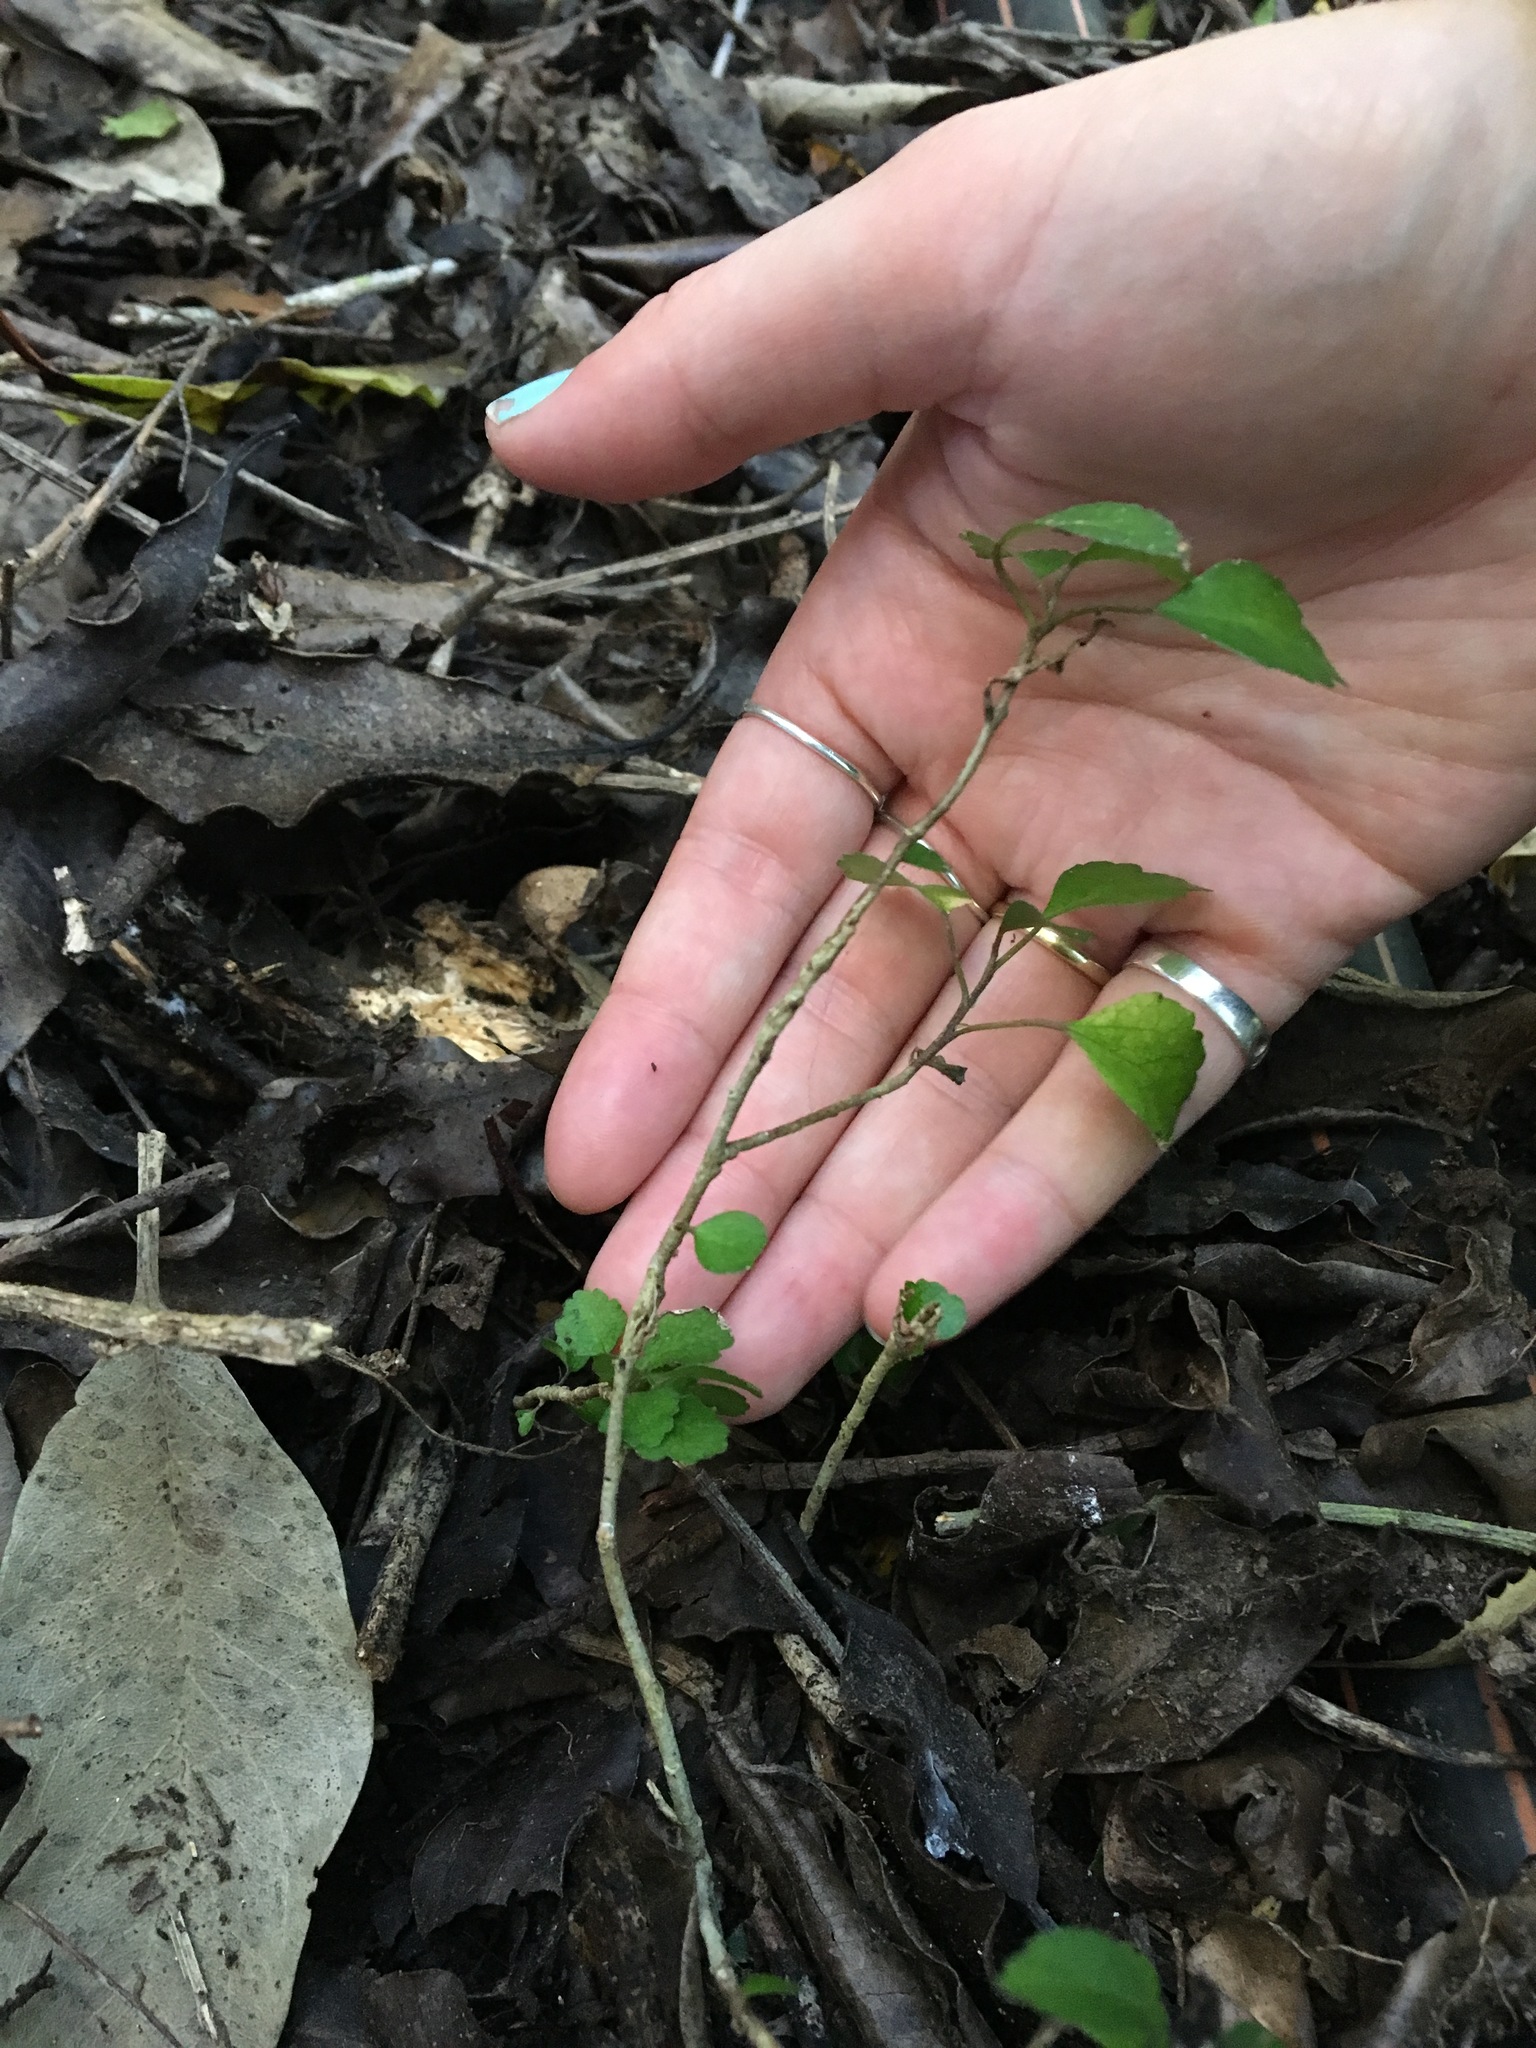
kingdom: Plantae
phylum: Tracheophyta
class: Magnoliopsida
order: Malpighiales
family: Violaceae
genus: Melicytus
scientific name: Melicytus micranthus
